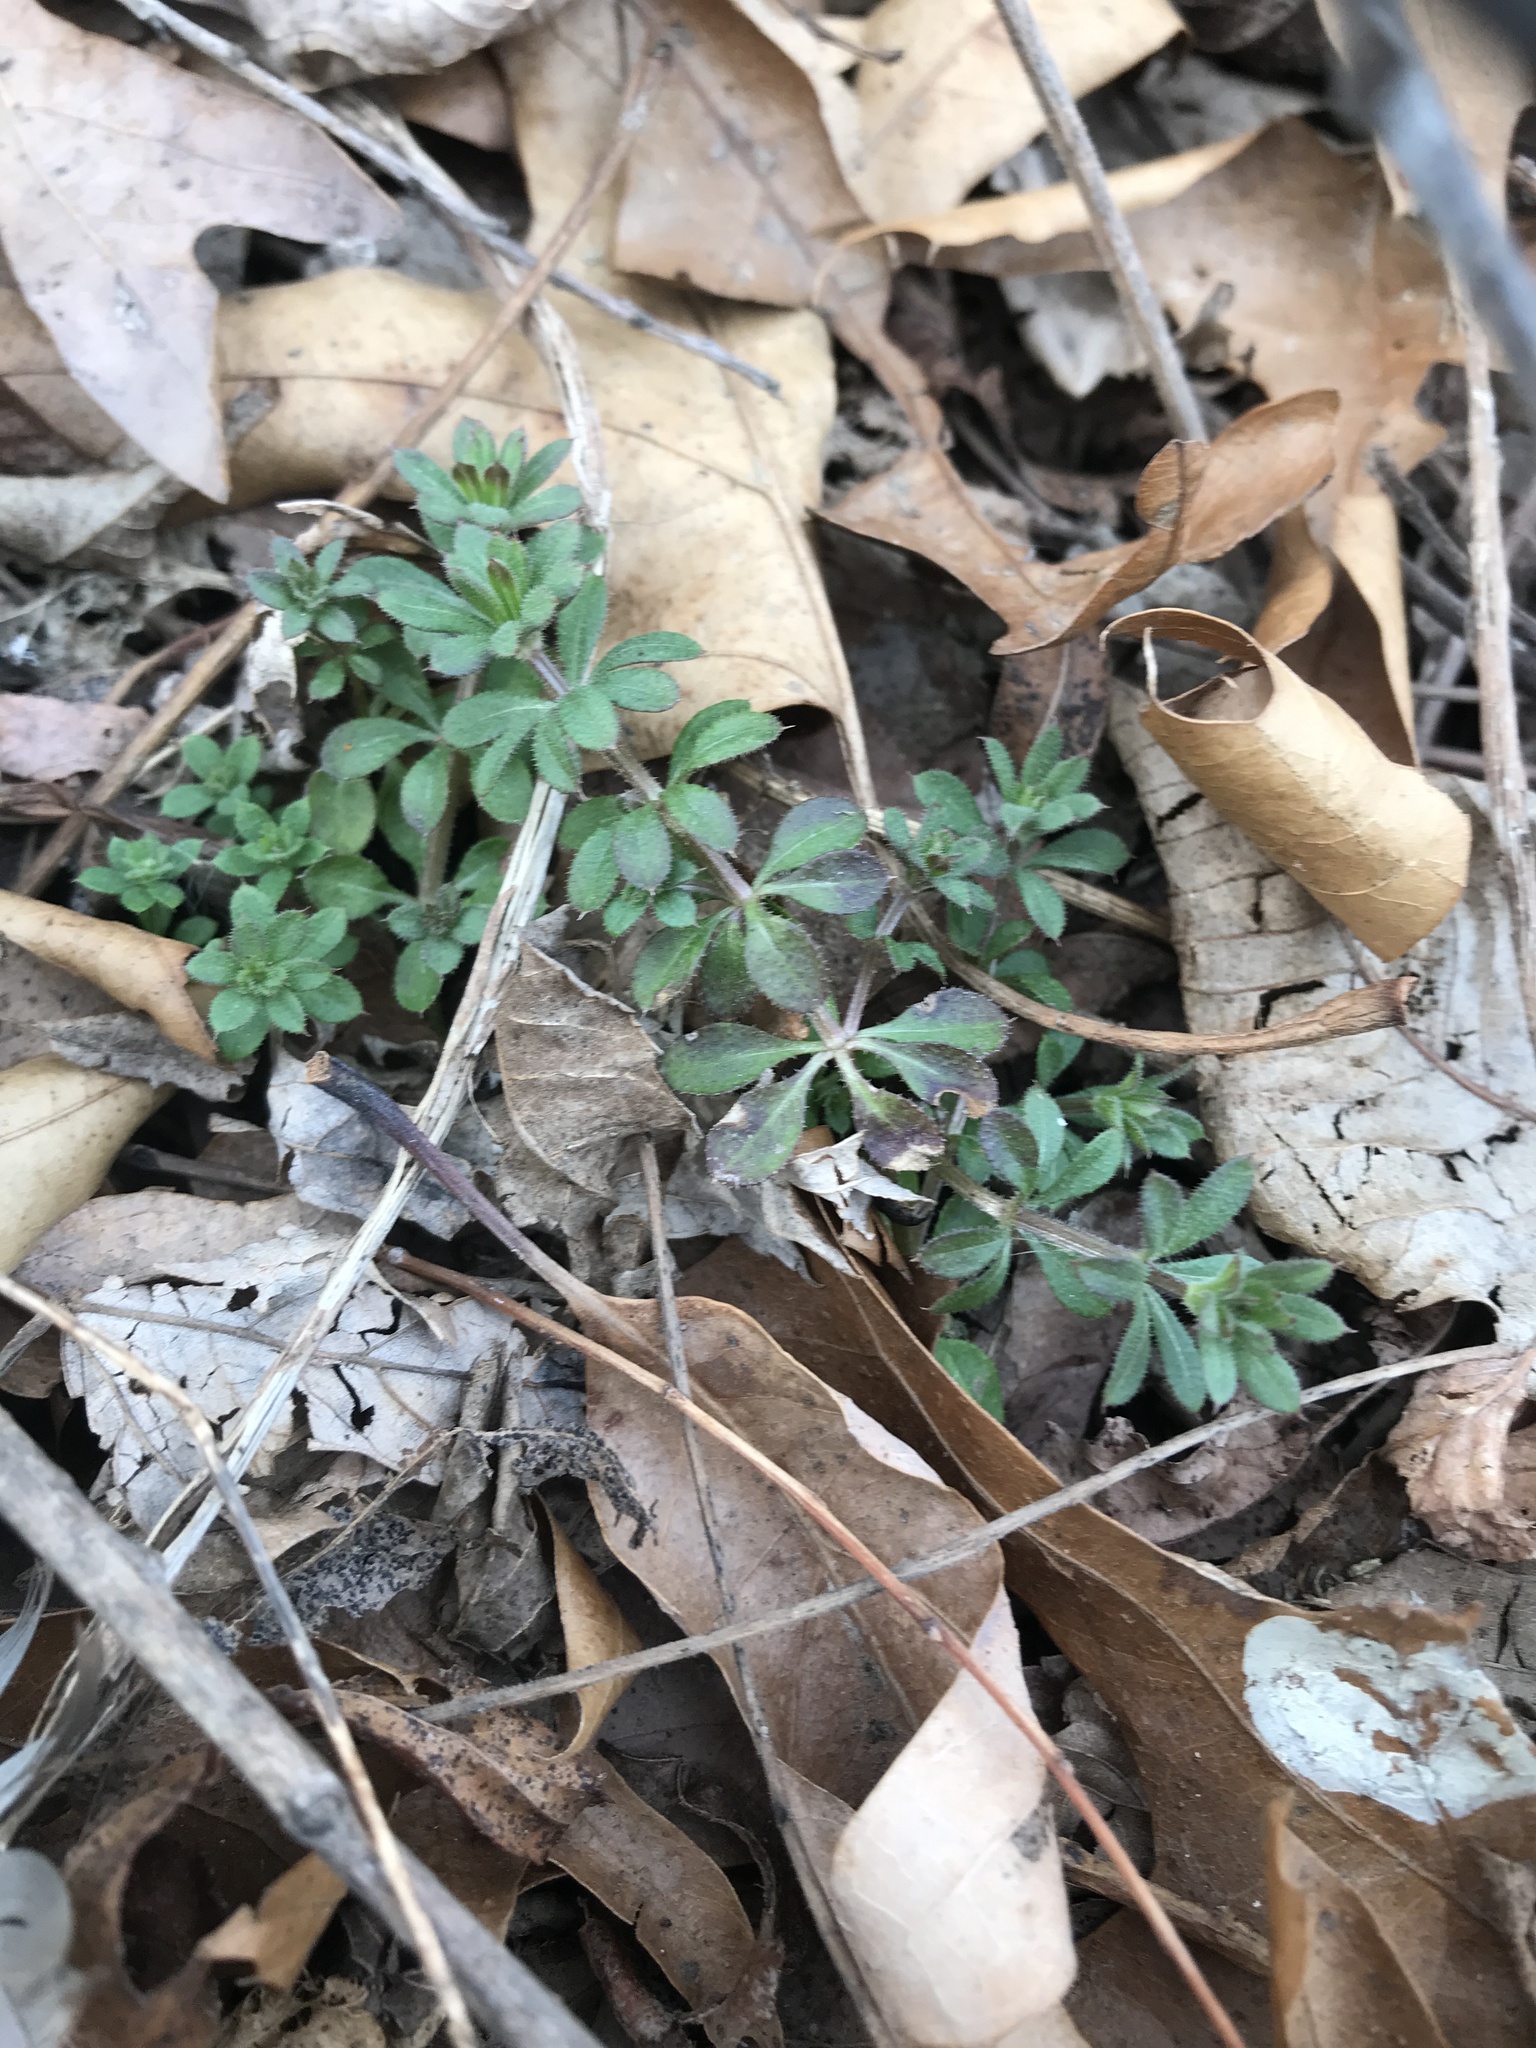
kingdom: Plantae
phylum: Tracheophyta
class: Magnoliopsida
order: Gentianales
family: Rubiaceae
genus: Galium
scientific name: Galium aparine
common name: Cleavers
